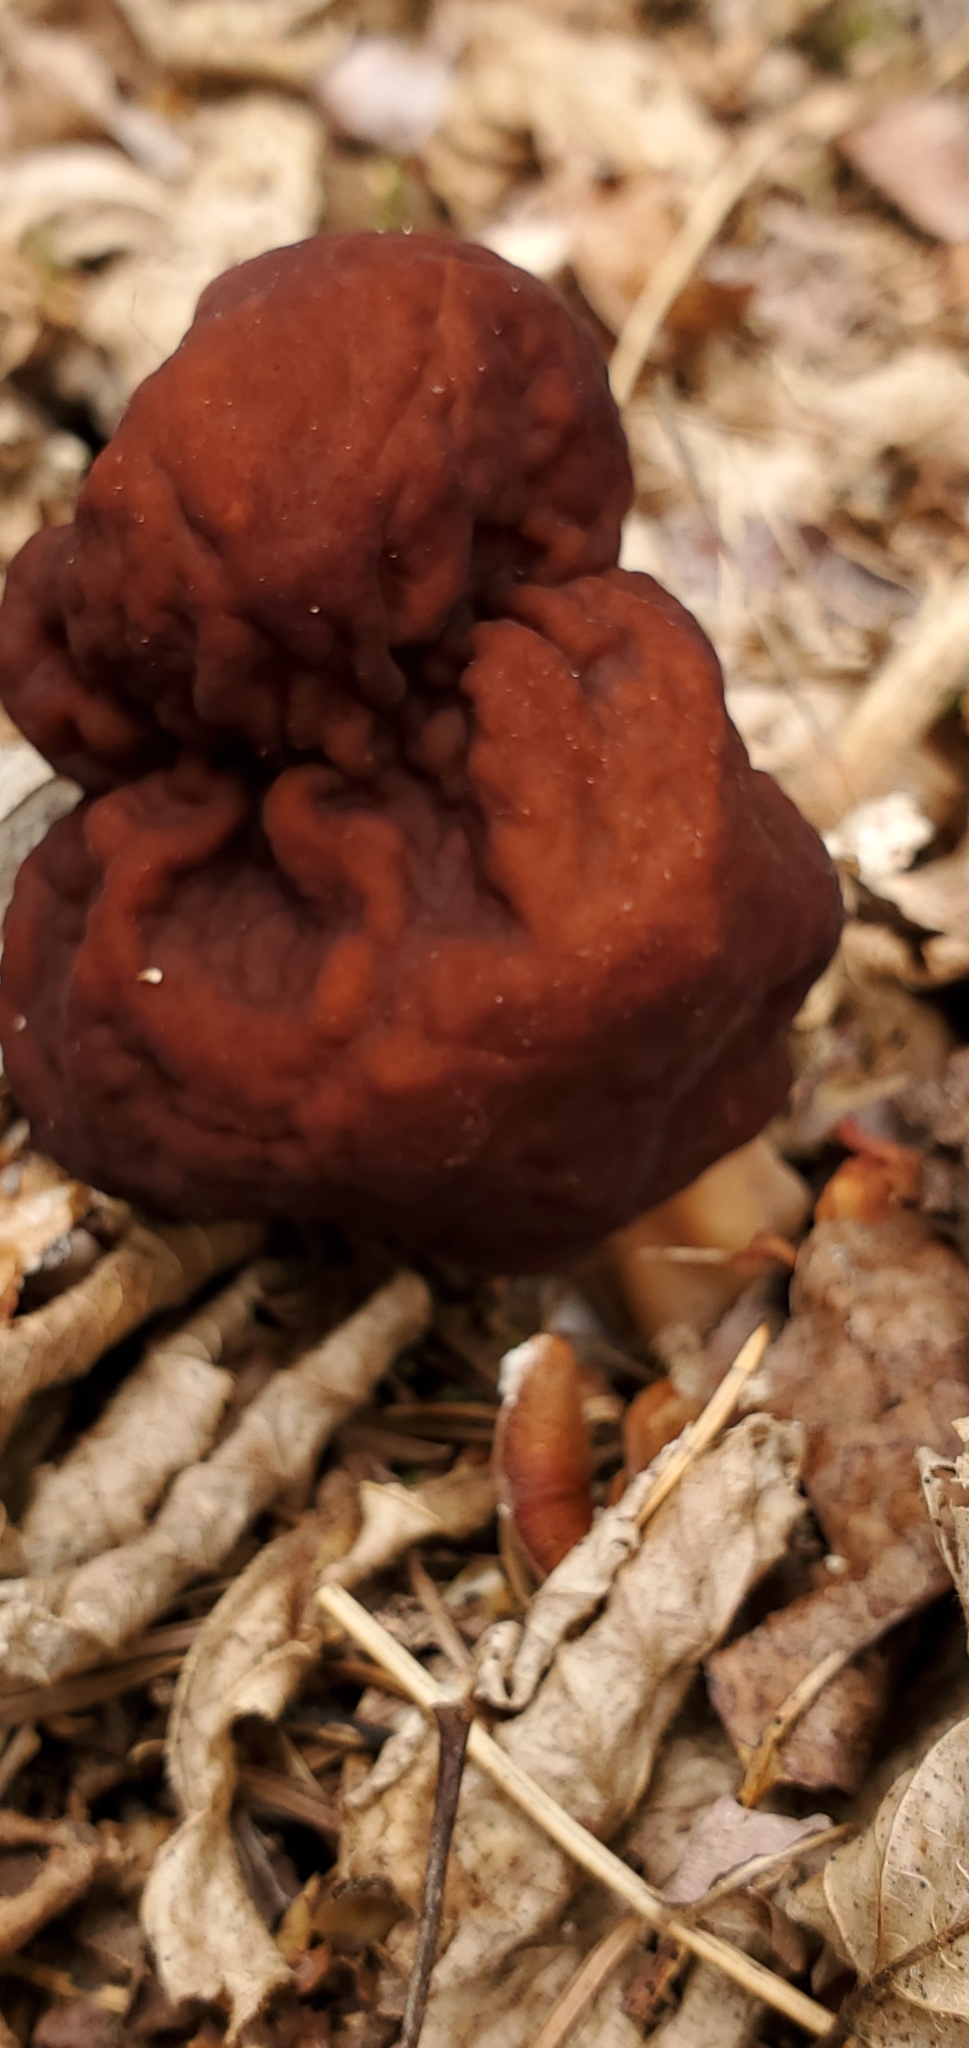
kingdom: Fungi
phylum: Ascomycota
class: Pezizomycetes
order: Pezizales
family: Discinaceae
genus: Gyromitra
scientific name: Gyromitra esculenta
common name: False morel
